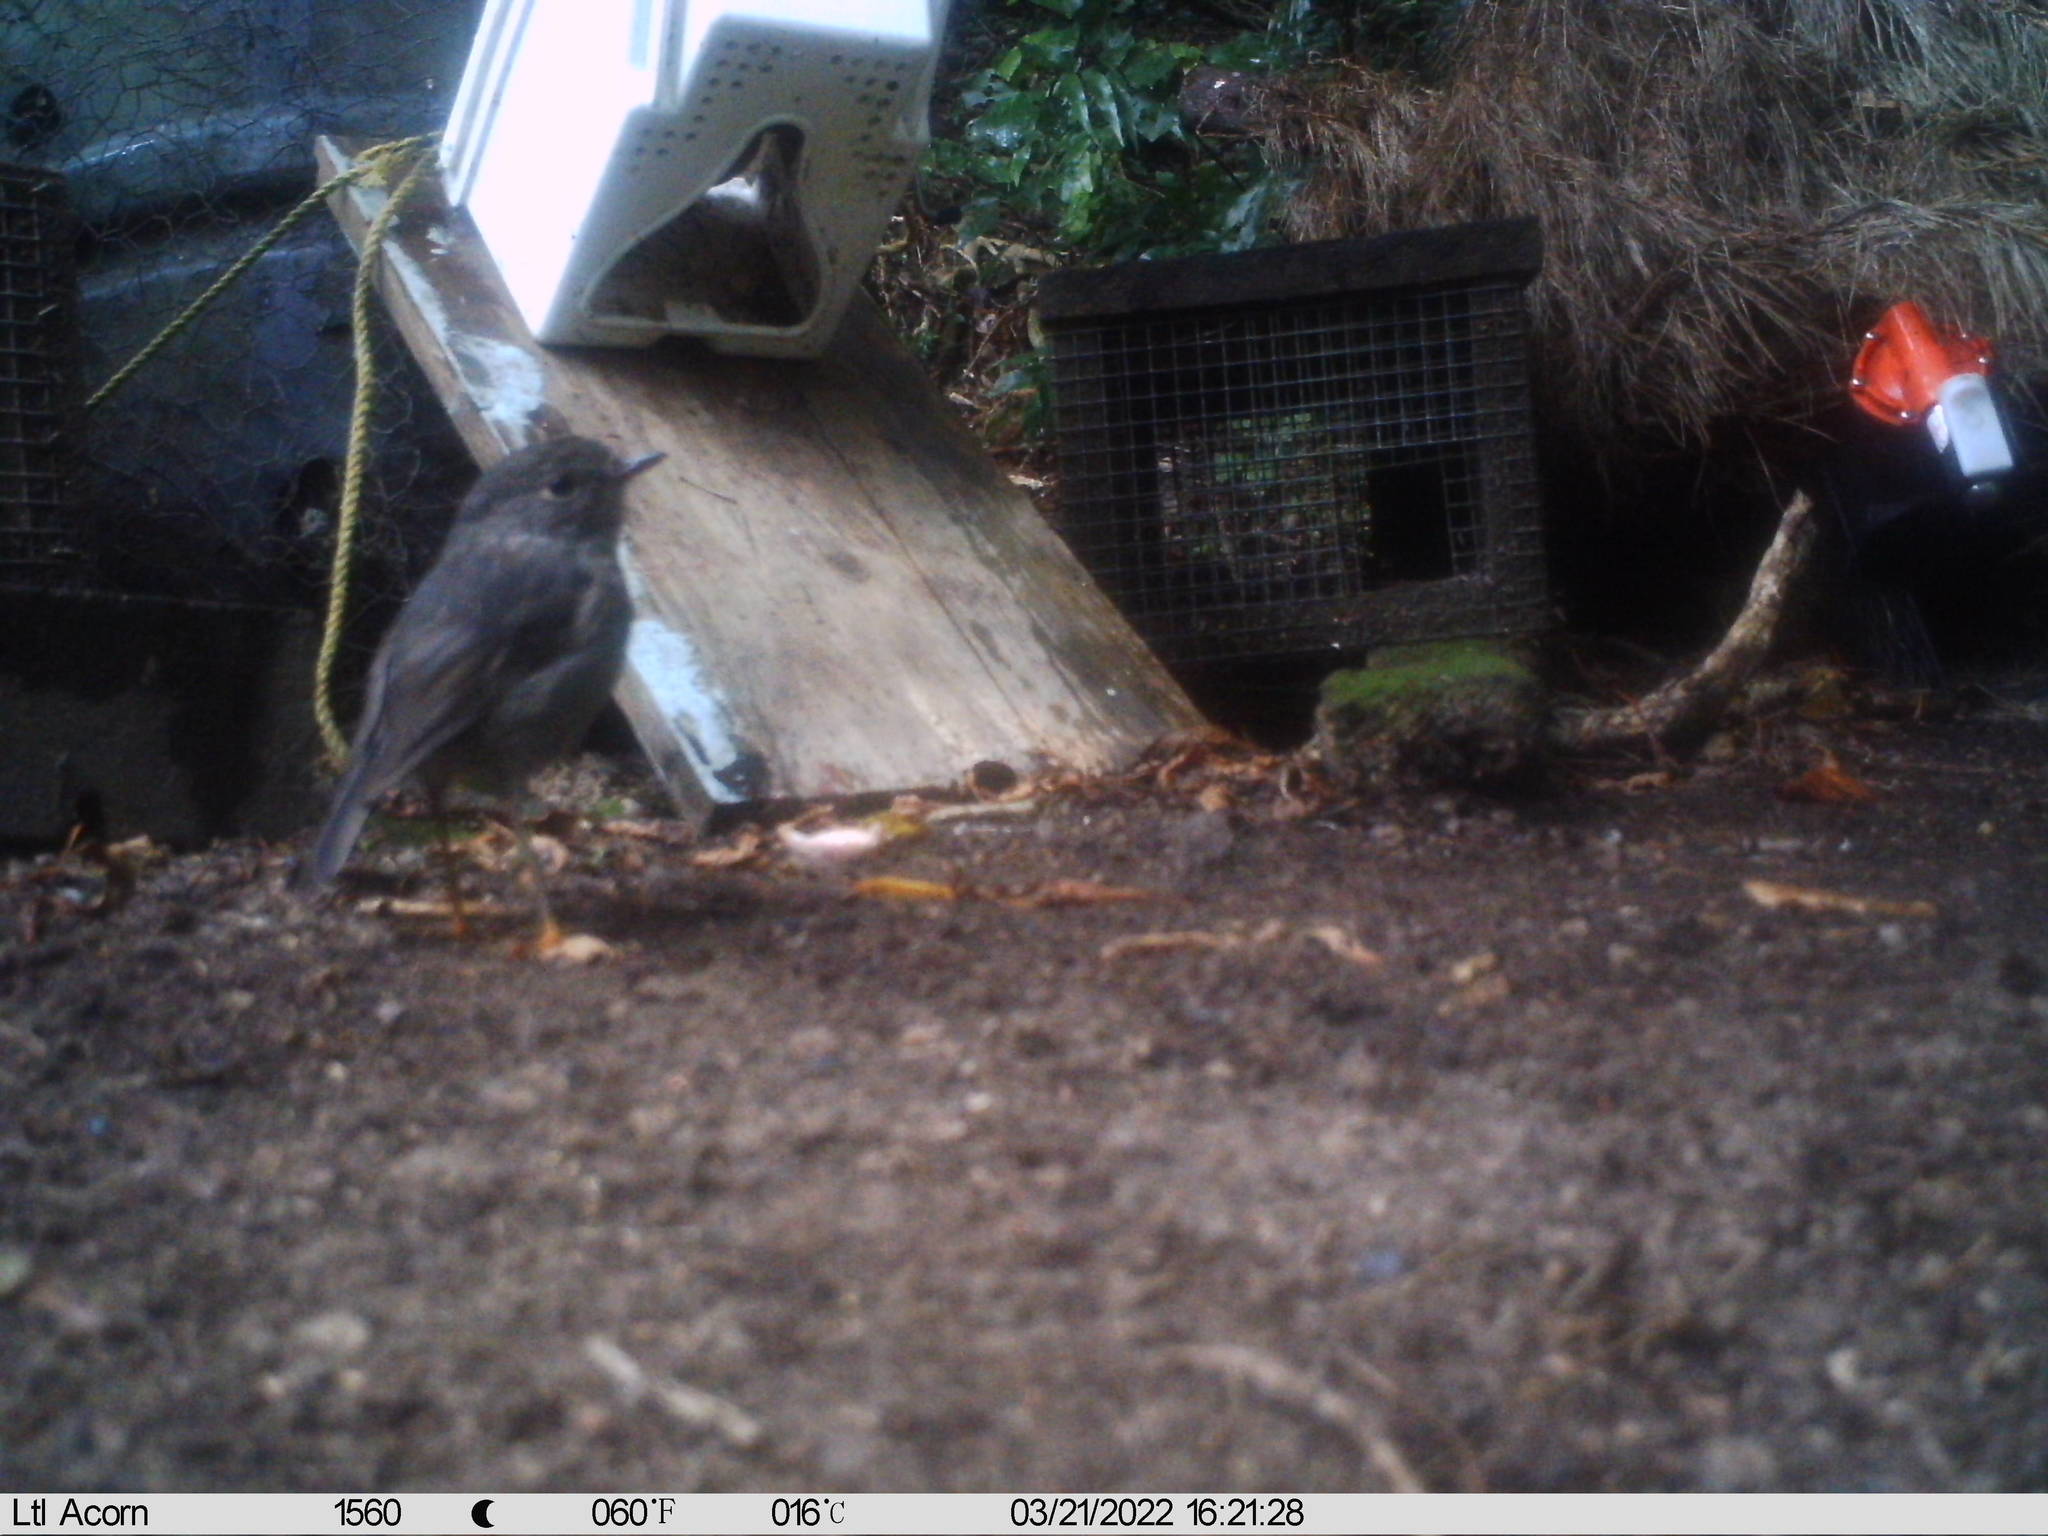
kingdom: Animalia
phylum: Chordata
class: Aves
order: Passeriformes
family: Petroicidae
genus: Petroica
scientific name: Petroica australis
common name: New zealand robin
